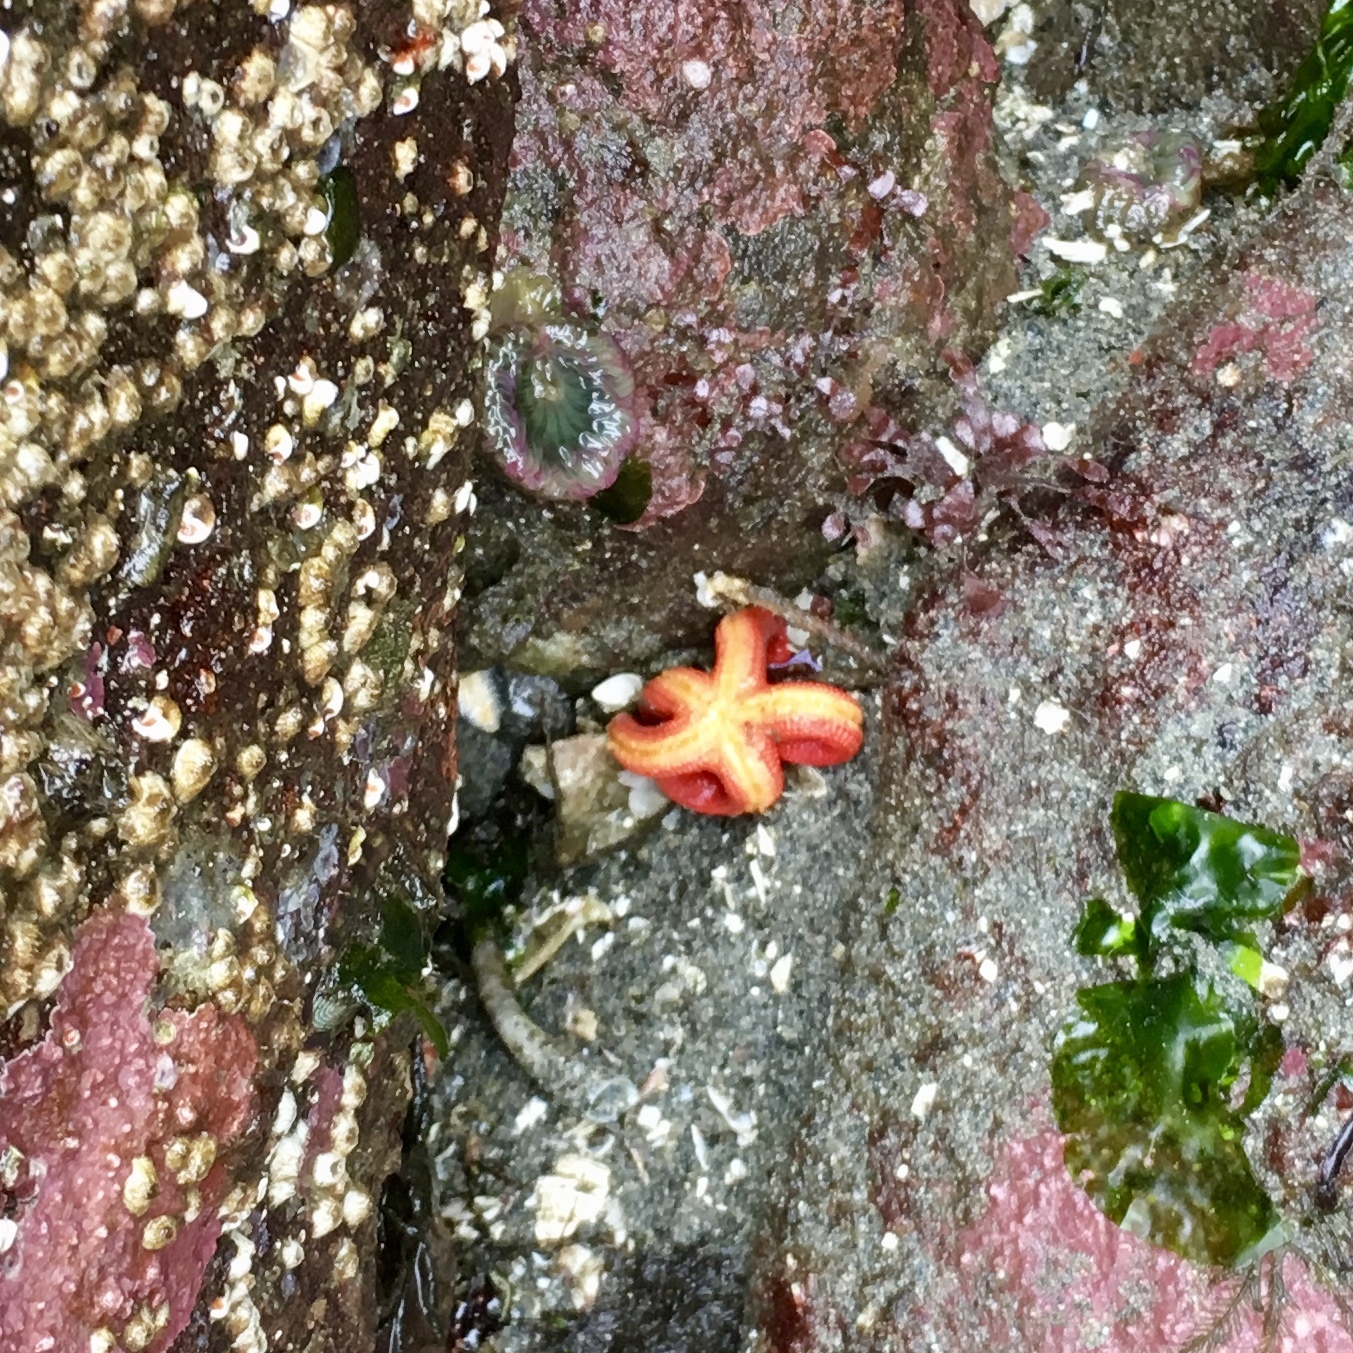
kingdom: Animalia
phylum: Echinodermata
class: Asteroidea
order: Spinulosida
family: Echinasteridae
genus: Henricia
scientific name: Henricia
